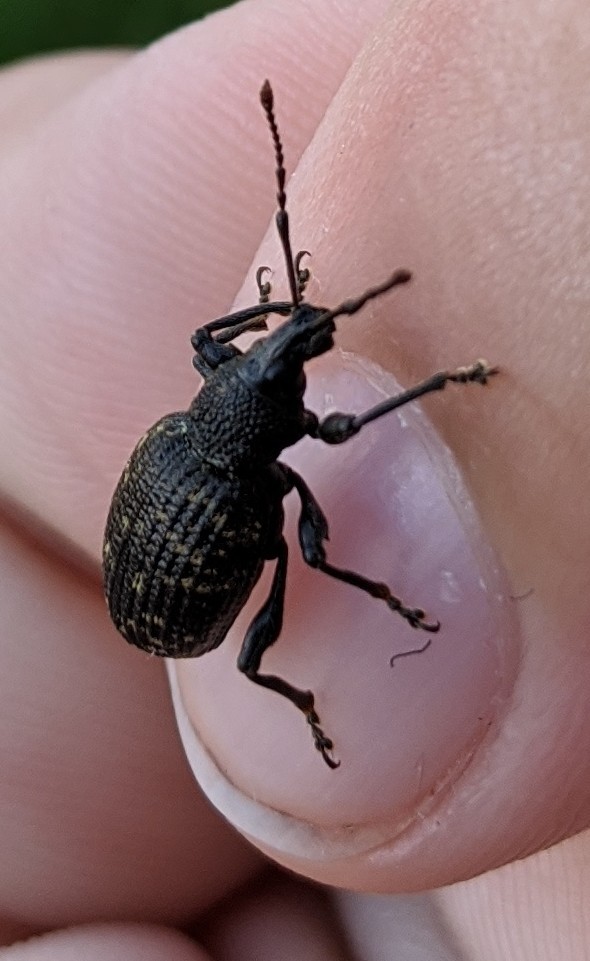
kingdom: Animalia
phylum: Arthropoda
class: Insecta
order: Coleoptera
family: Curculionidae
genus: Otiorhynchus
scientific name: Otiorhynchus sulcatus
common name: Black vine weevil
